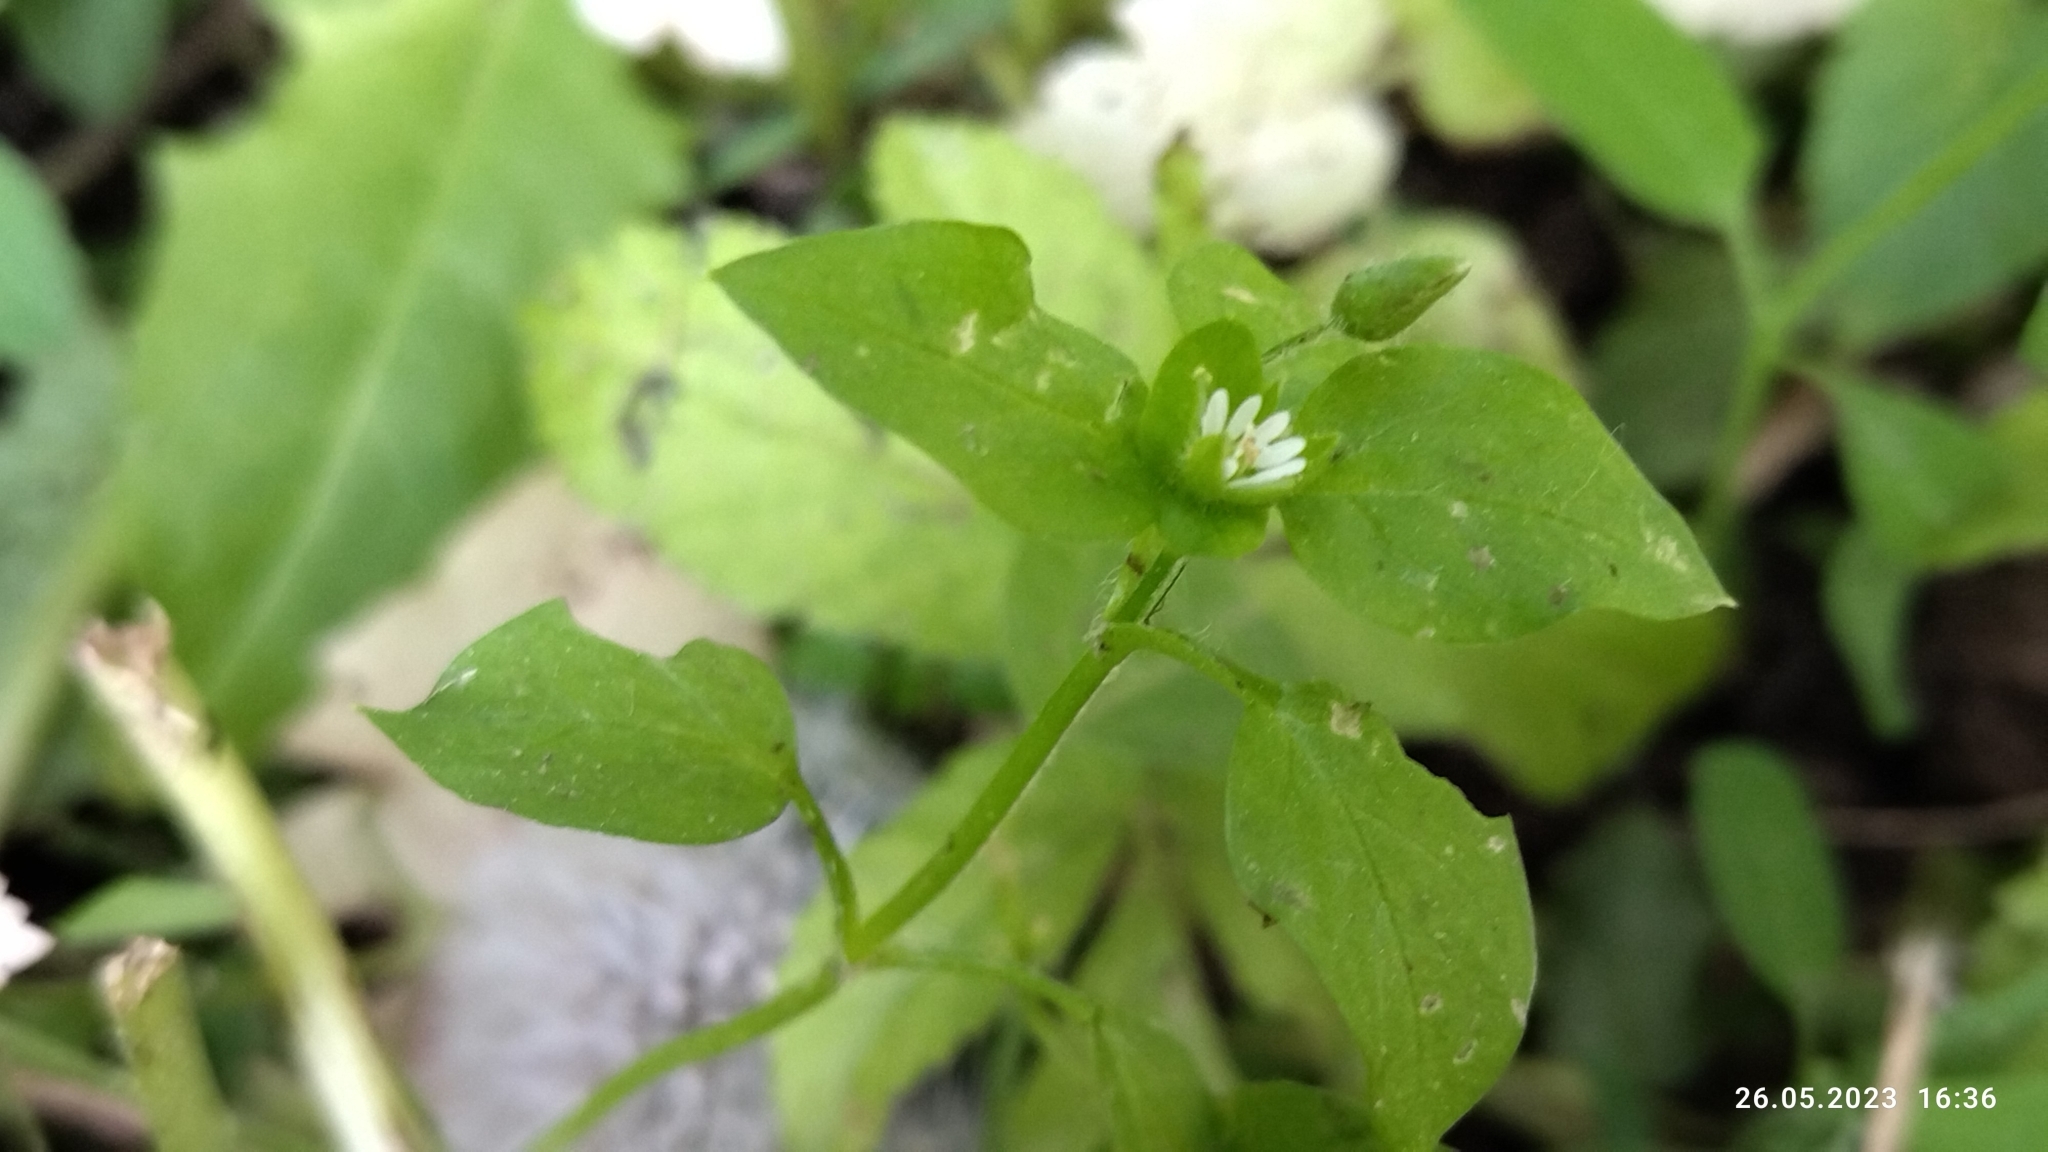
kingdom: Plantae
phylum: Tracheophyta
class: Magnoliopsida
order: Caryophyllales
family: Caryophyllaceae
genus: Stellaria
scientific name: Stellaria media
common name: Common chickweed
